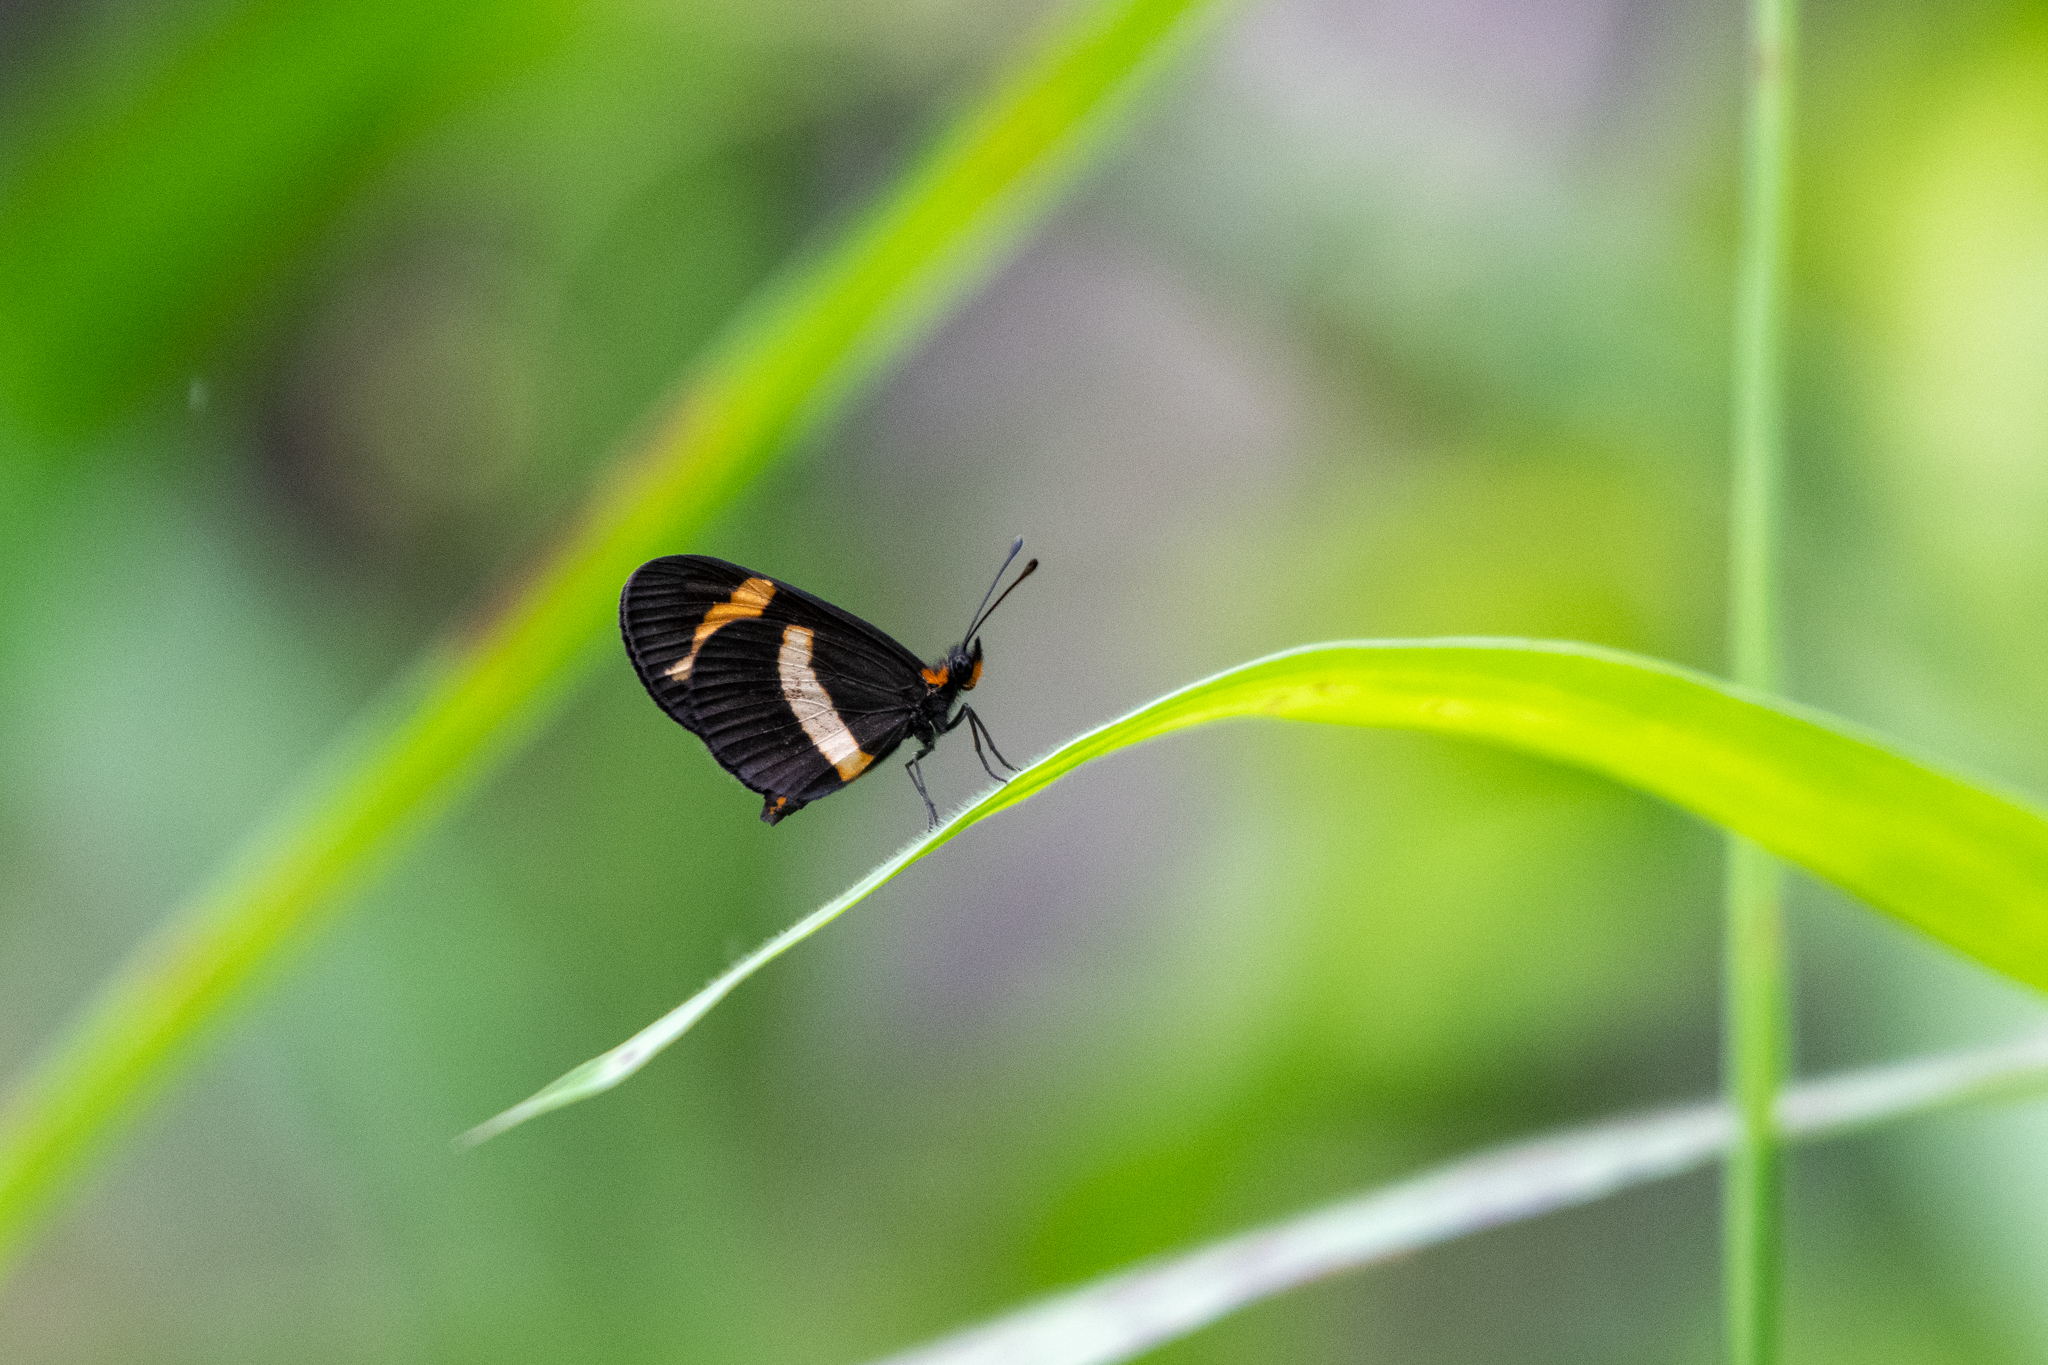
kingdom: Animalia
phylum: Arthropoda
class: Insecta
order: Lepidoptera
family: Nymphalidae
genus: Microtia
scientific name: Microtia elva
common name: Elf
